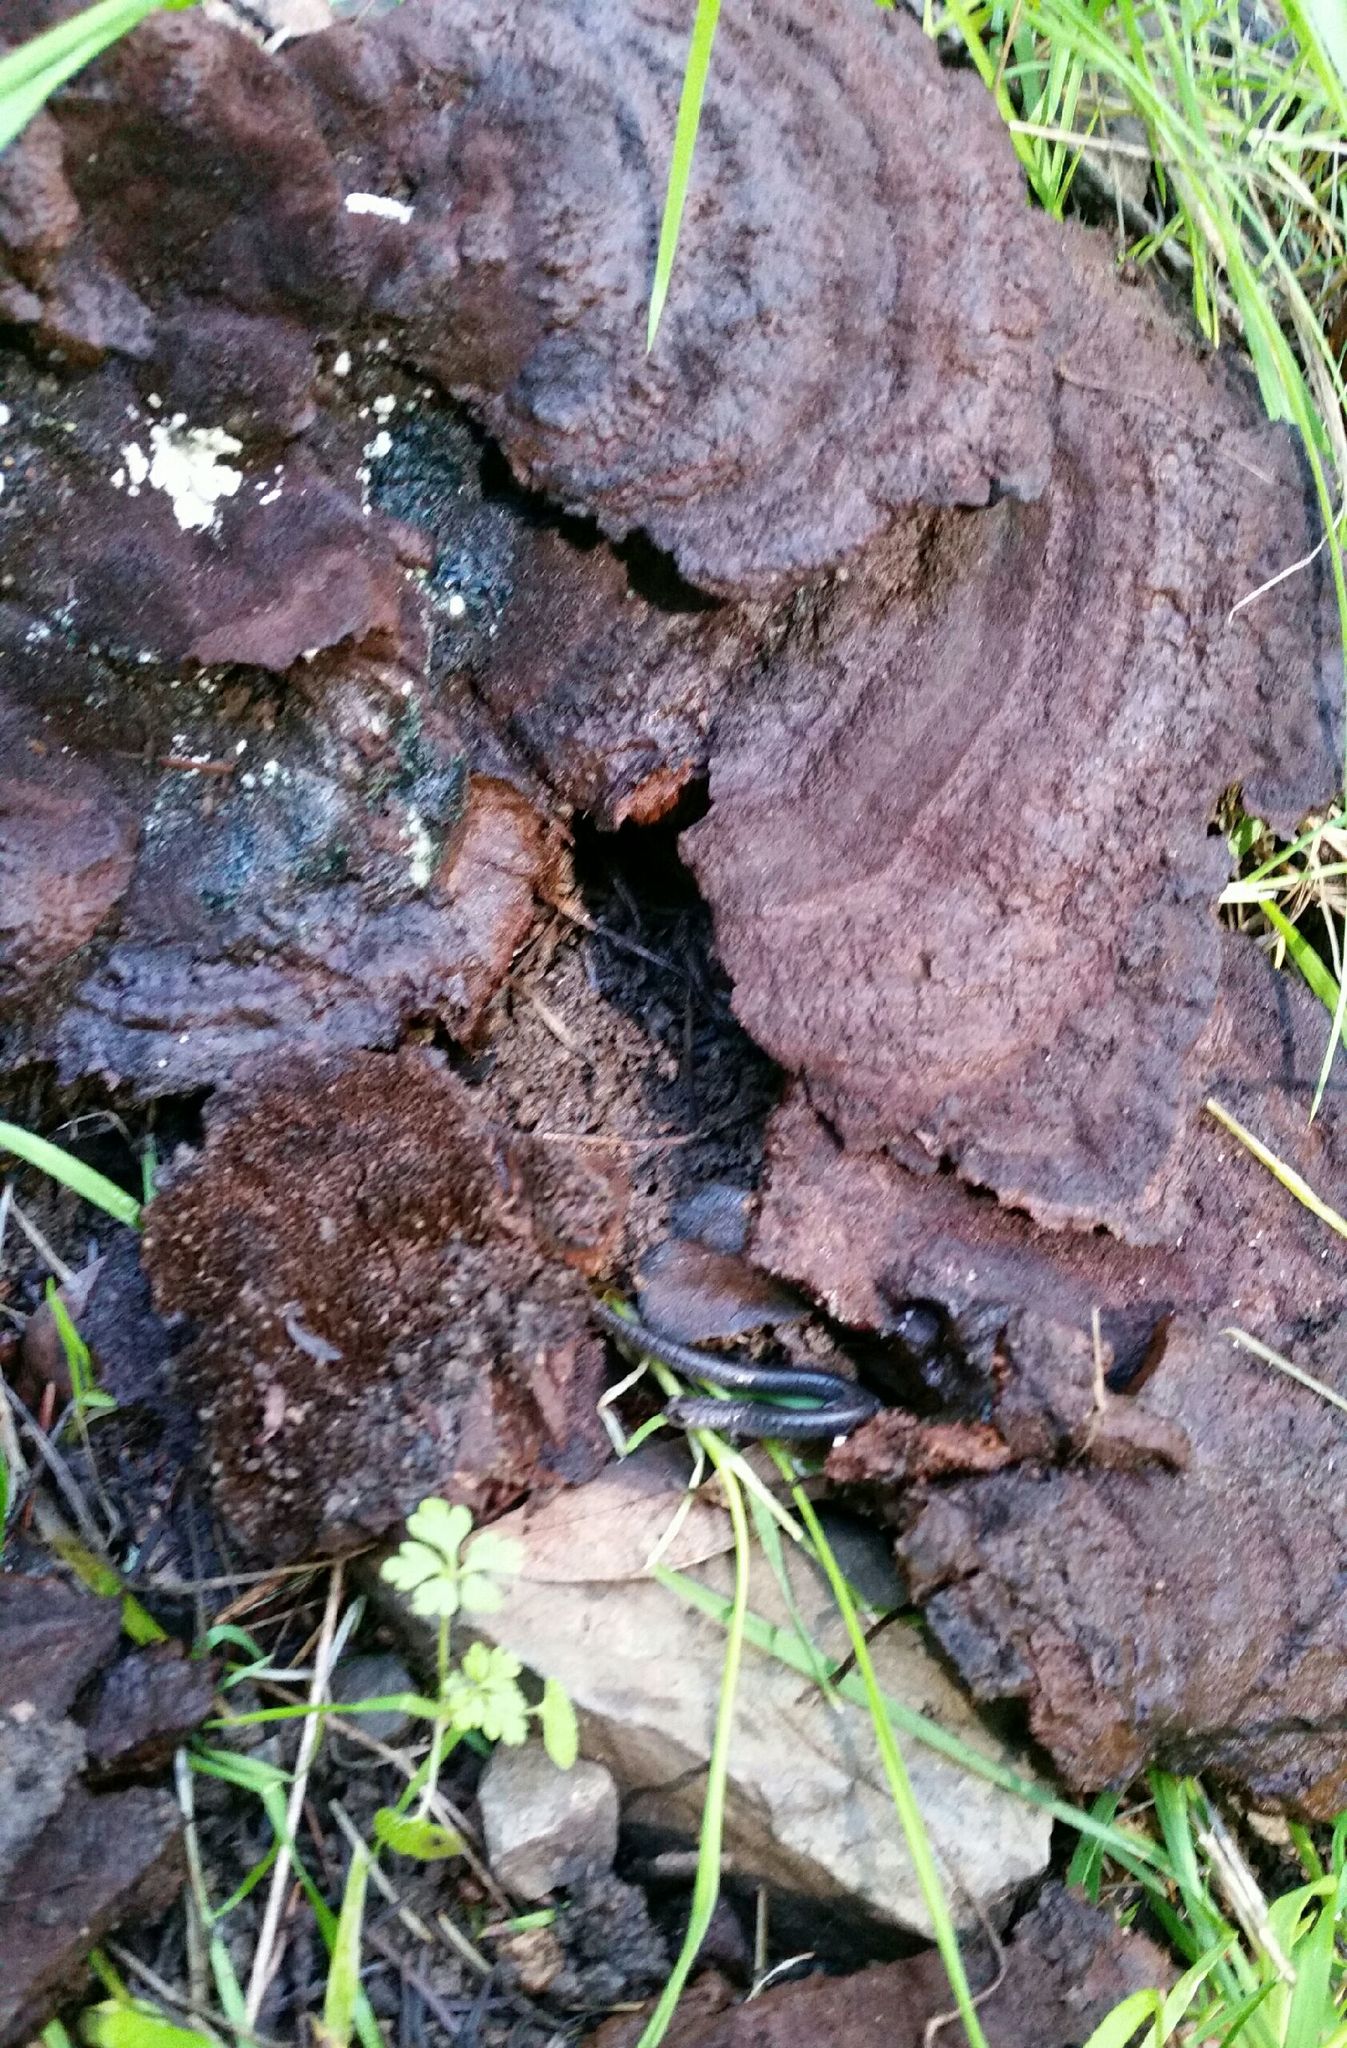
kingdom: Animalia
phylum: Chordata
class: Amphibia
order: Caudata
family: Plethodontidae
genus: Batrachoseps
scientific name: Batrachoseps attenuatus
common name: California slender salamander
